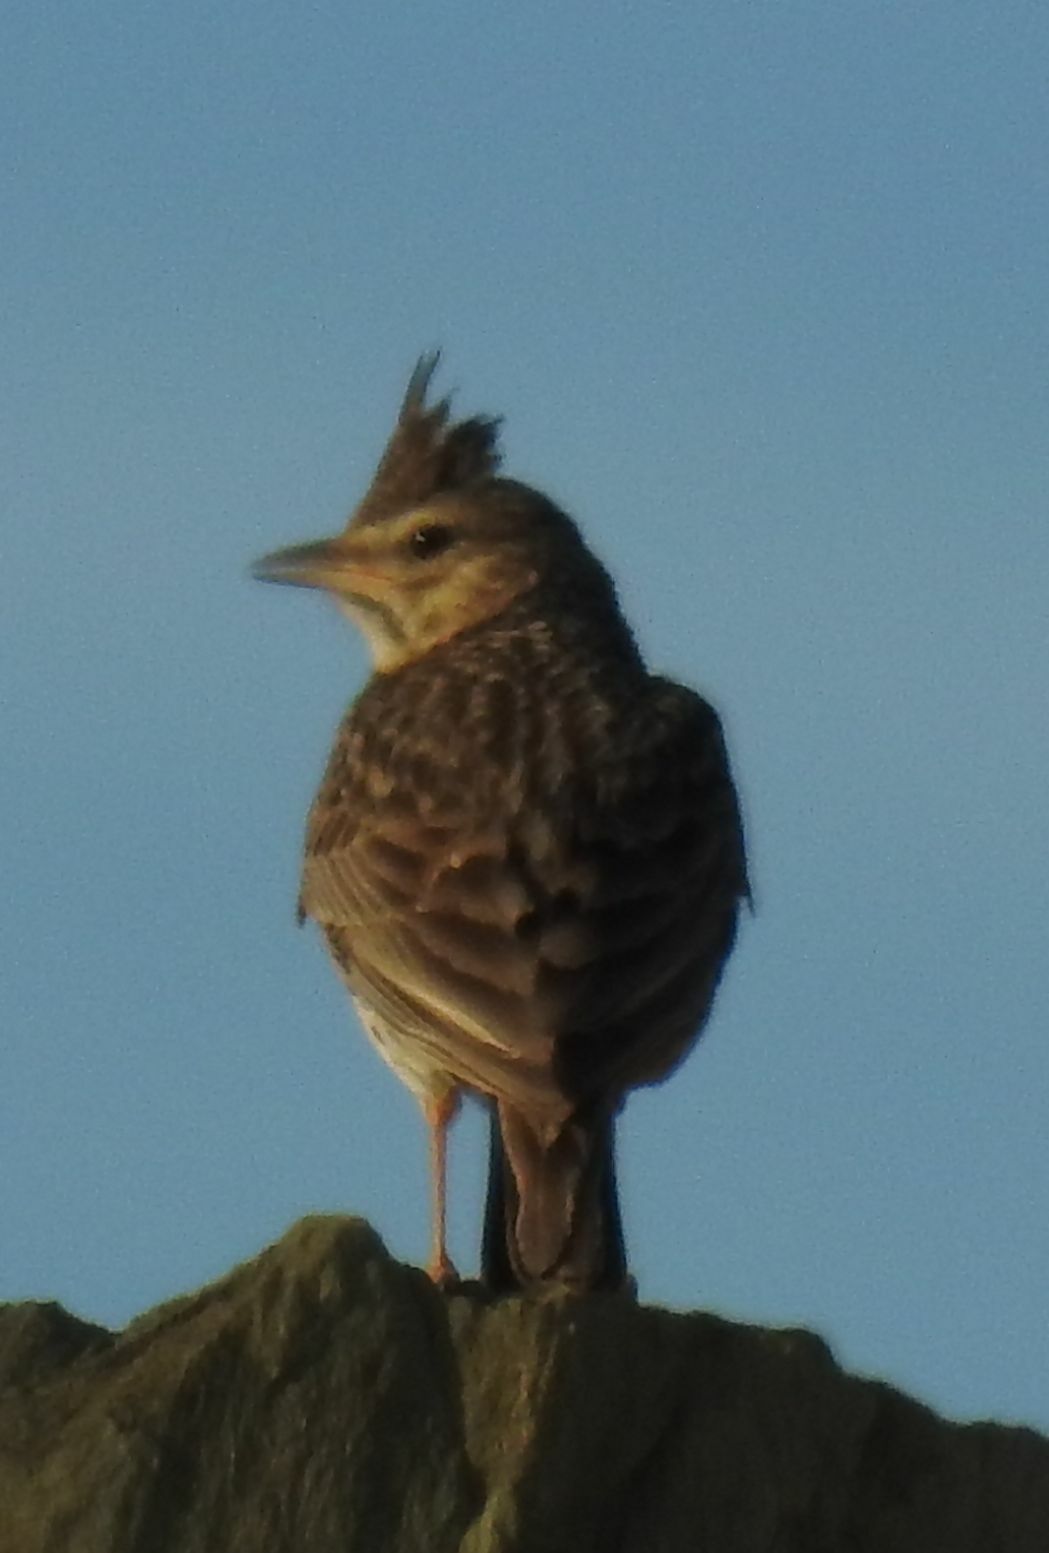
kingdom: Animalia
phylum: Chordata
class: Aves
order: Passeriformes
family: Alaudidae
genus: Galerida
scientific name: Galerida theklae
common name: Thekla lark
